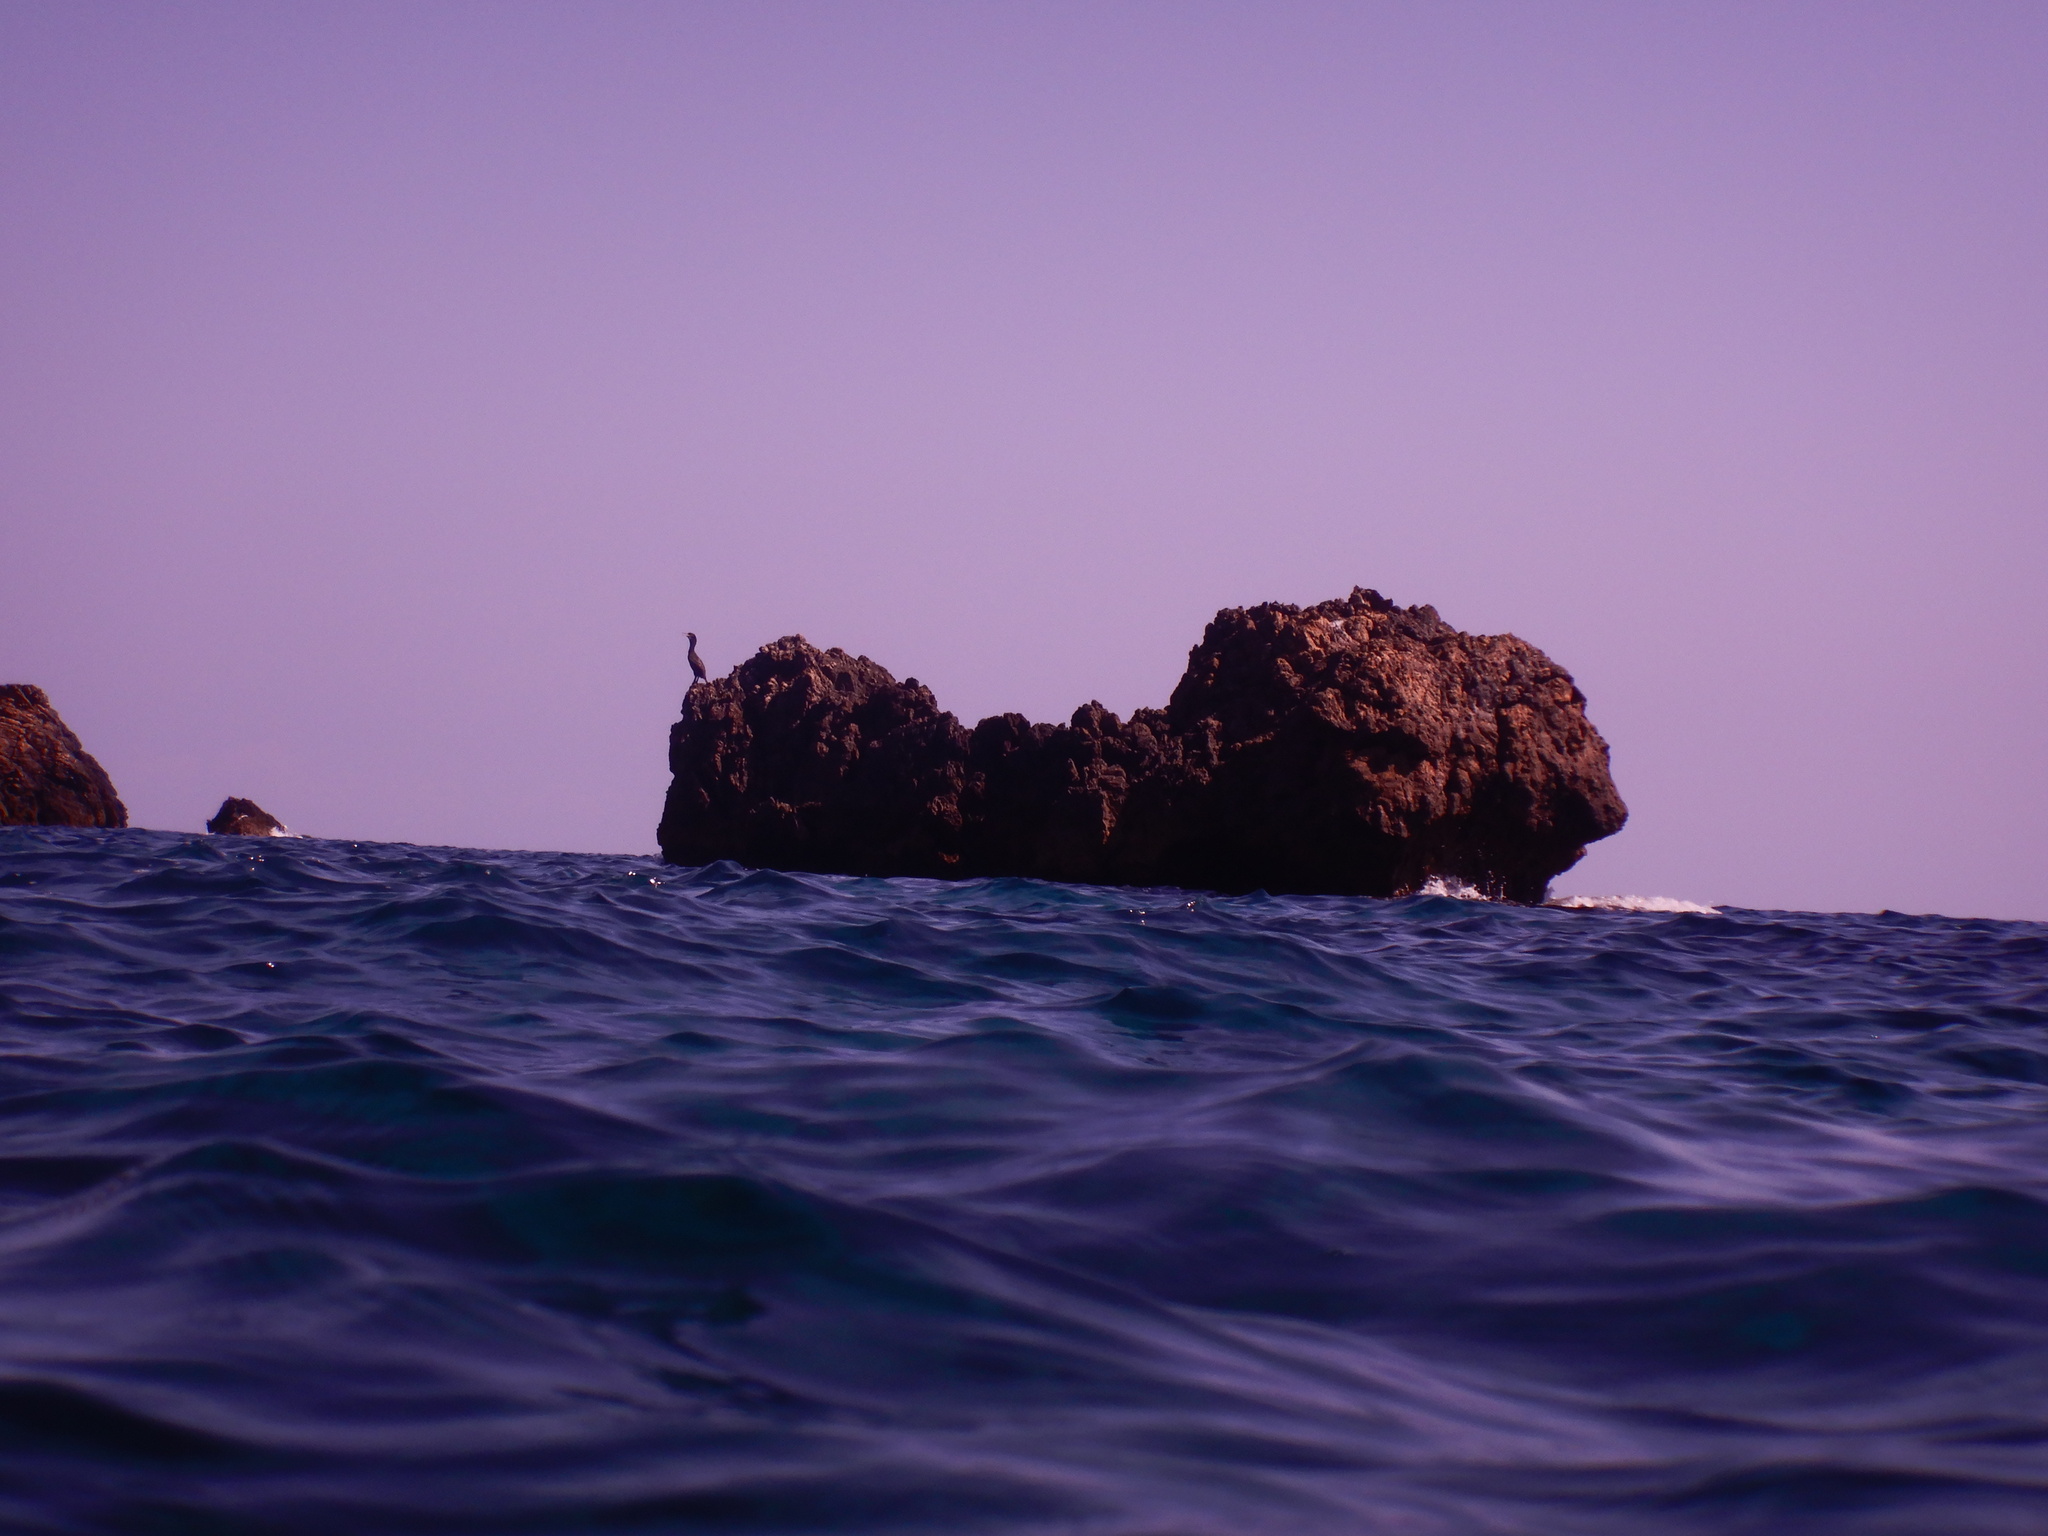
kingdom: Animalia
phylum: Chordata
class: Aves
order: Suliformes
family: Phalacrocoracidae
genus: Phalacrocorax
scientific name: Phalacrocorax aristotelis
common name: European shag
